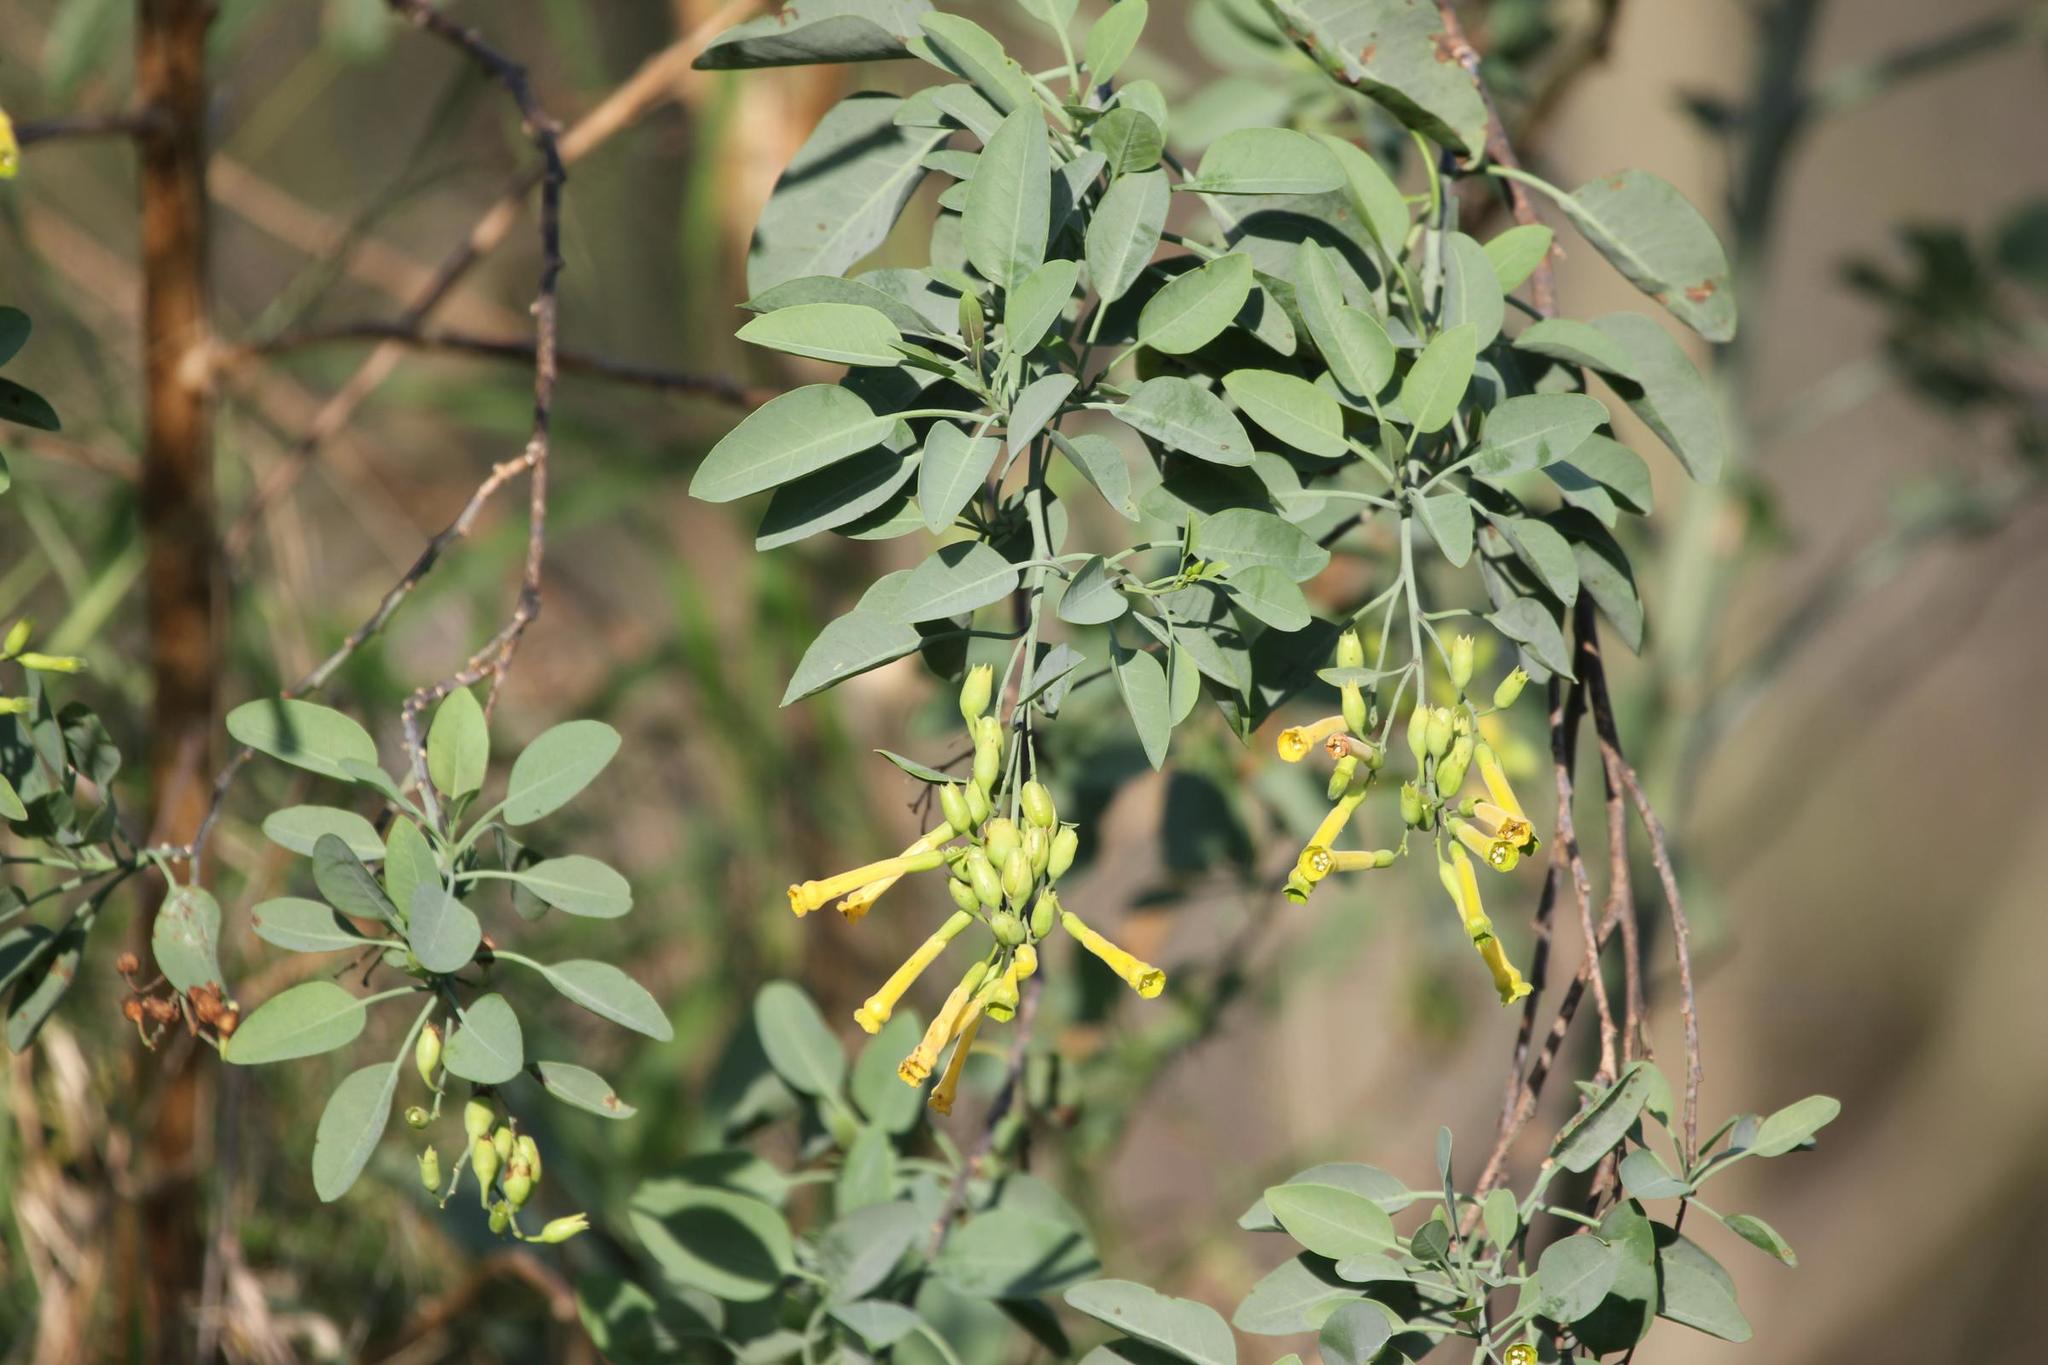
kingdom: Plantae
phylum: Tracheophyta
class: Magnoliopsida
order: Solanales
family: Solanaceae
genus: Nicotiana
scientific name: Nicotiana glauca
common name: Tree tobacco
